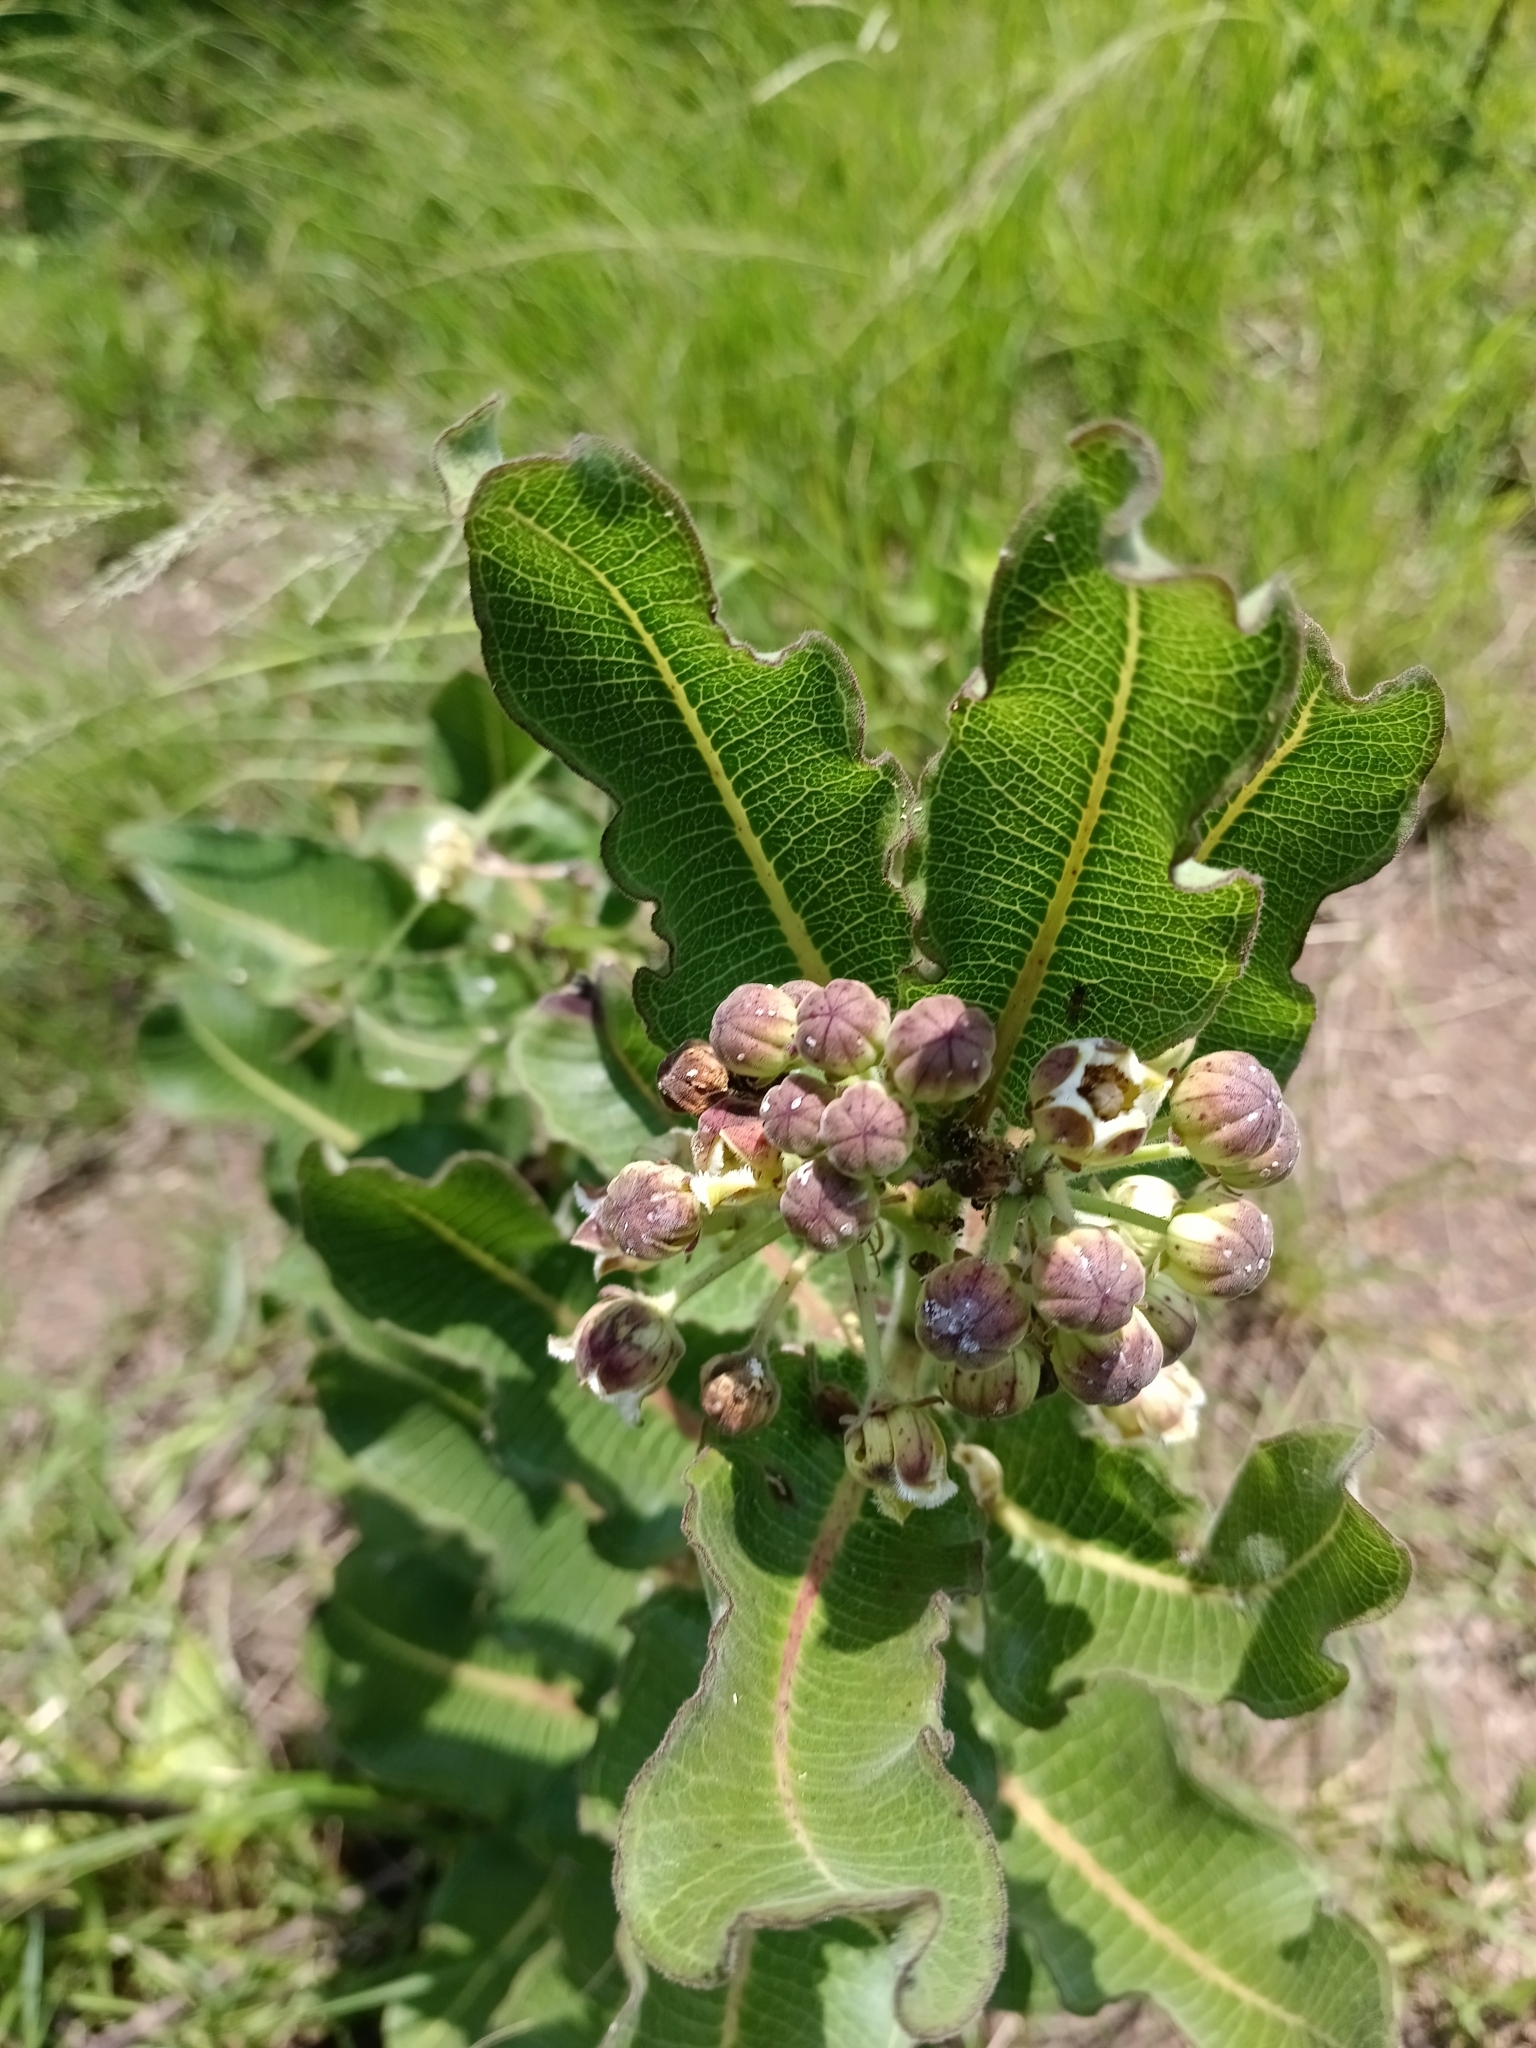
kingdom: Plantae
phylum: Tracheophyta
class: Magnoliopsida
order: Gentianales
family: Apocynaceae
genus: Xysmalobium
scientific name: Xysmalobium undulatum
